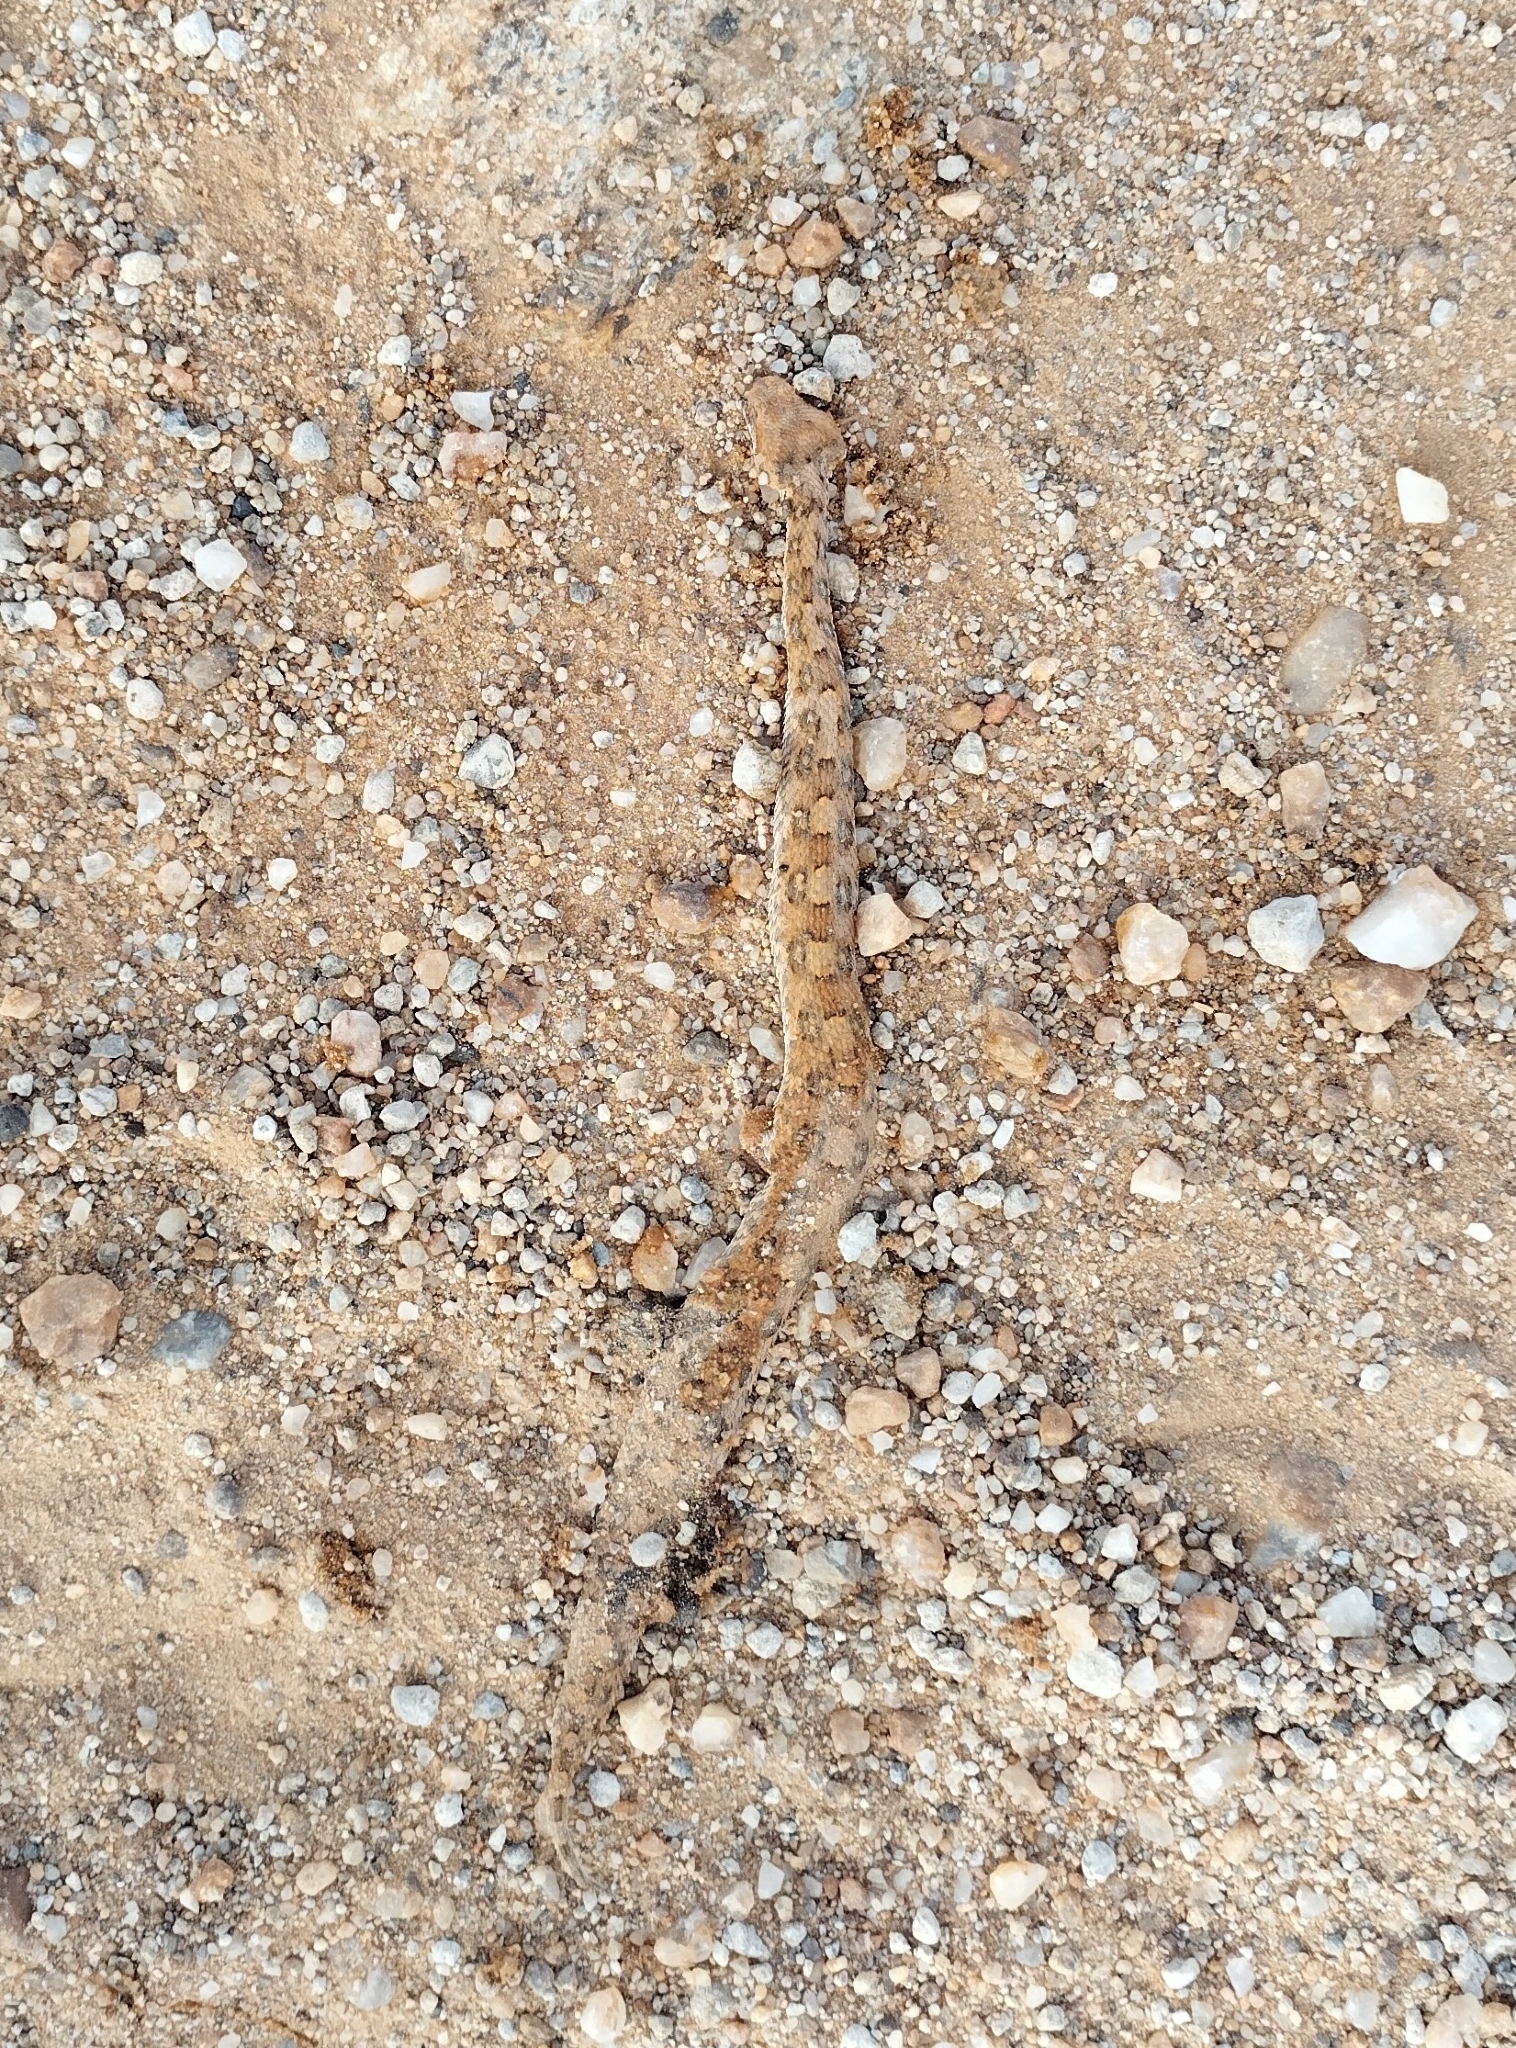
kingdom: Animalia
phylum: Chordata
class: Squamata
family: Viperidae
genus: Bitis
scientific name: Bitis caudalis
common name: Horned adder
